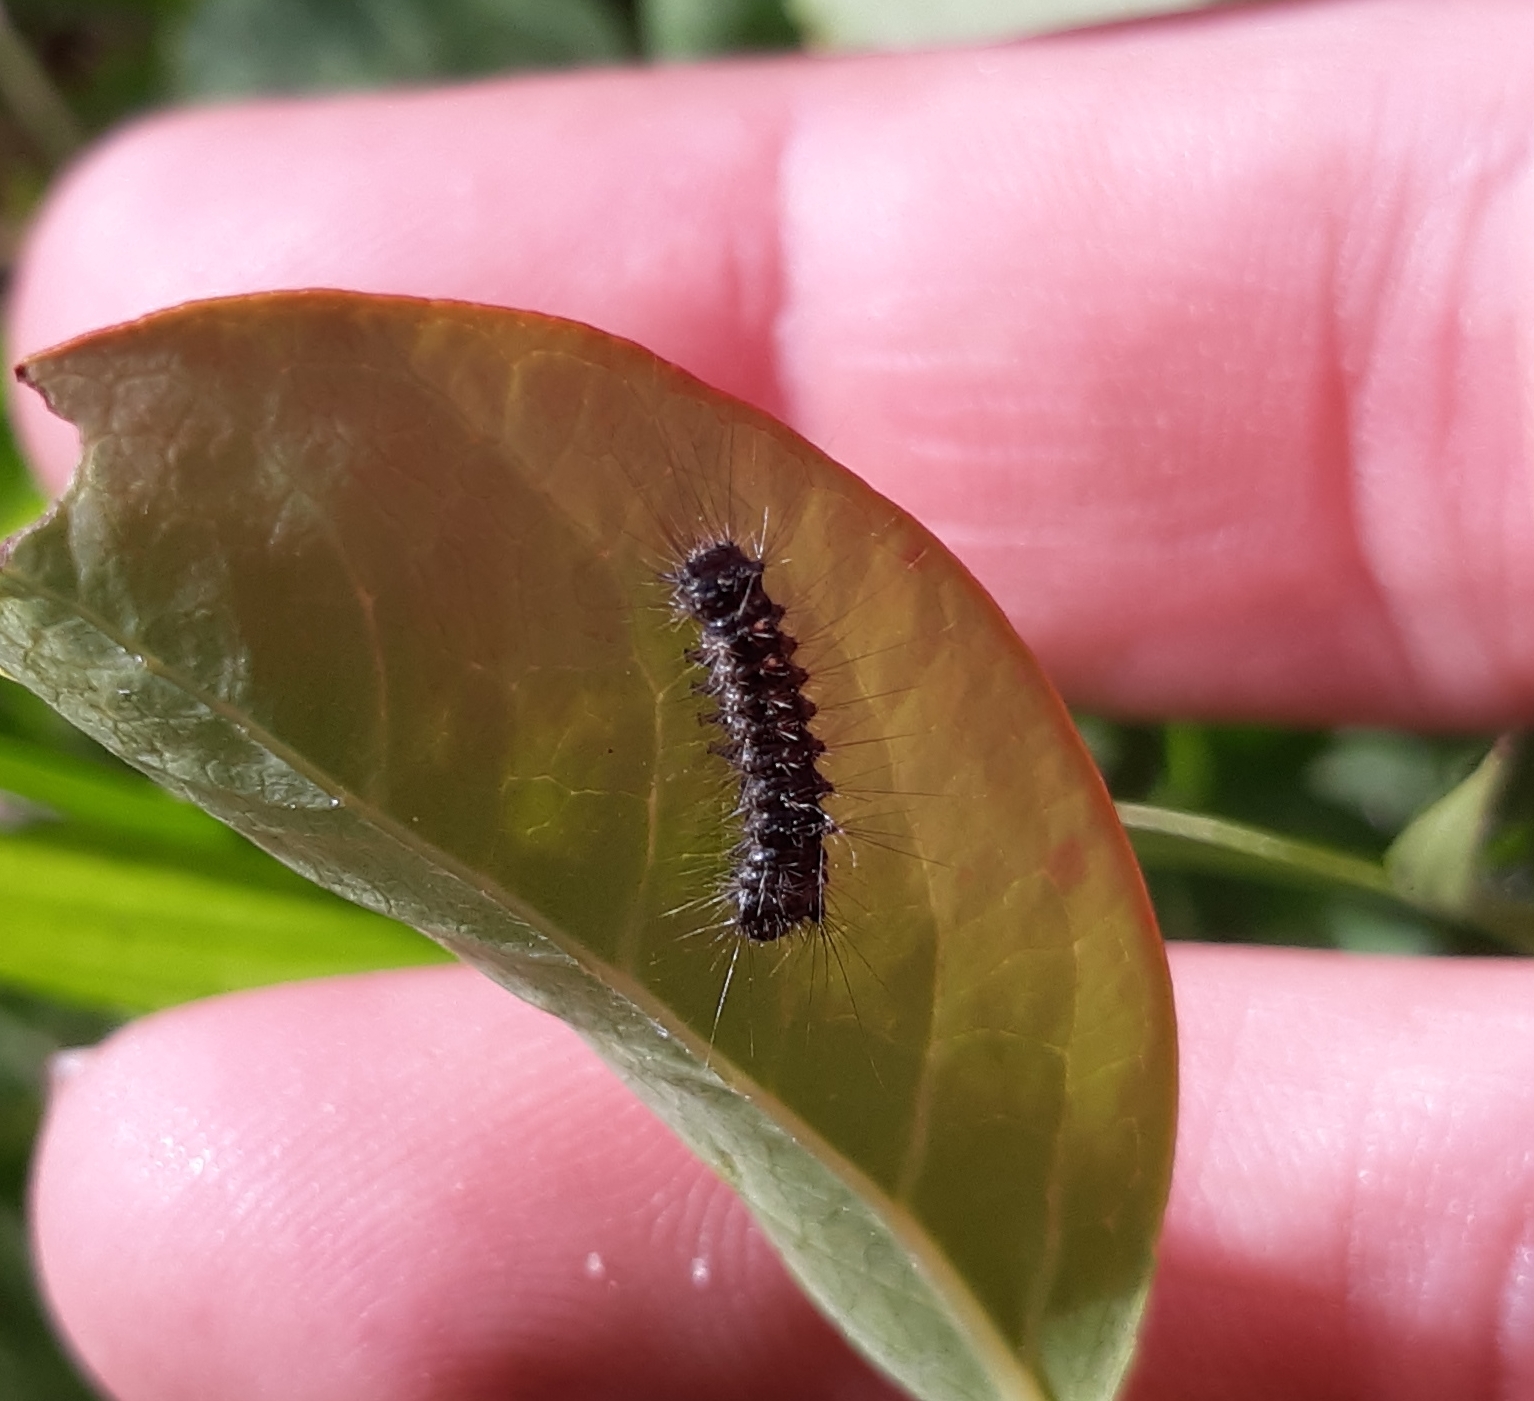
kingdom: Animalia
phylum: Arthropoda
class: Insecta
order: Lepidoptera
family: Erebidae
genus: Lymantria
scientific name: Lymantria dispar
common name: Gypsy moth
